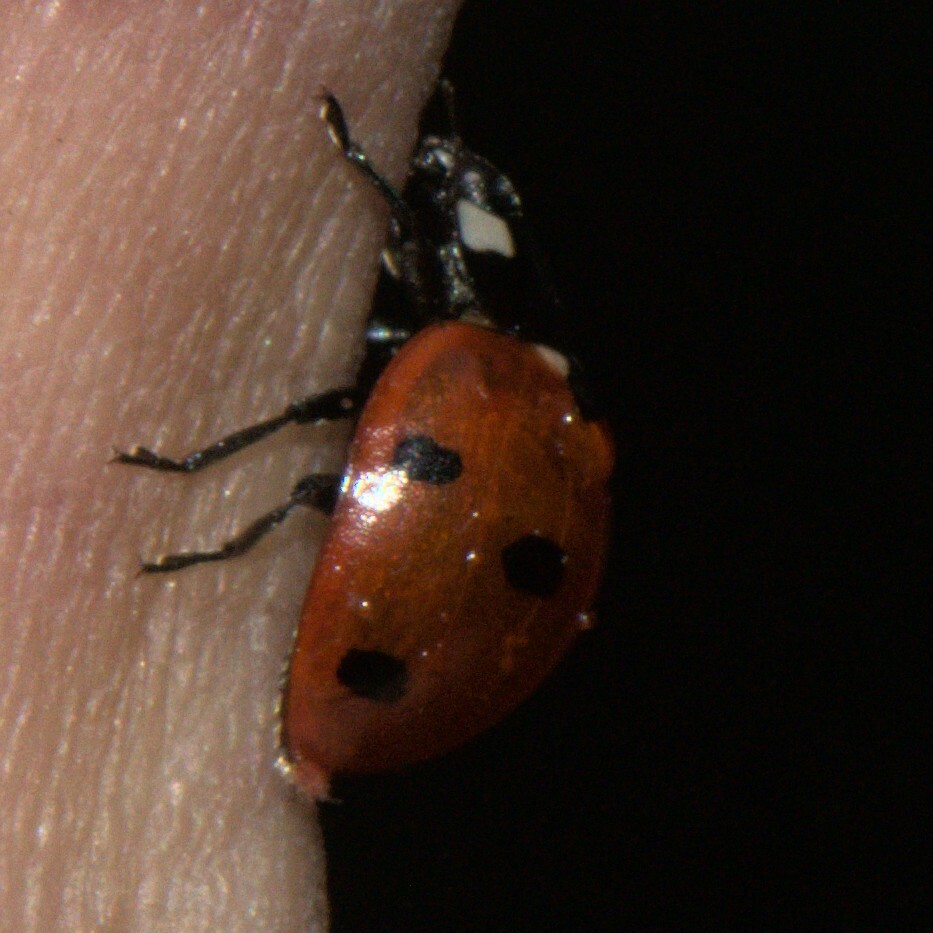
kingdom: Animalia
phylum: Arthropoda
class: Insecta
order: Coleoptera
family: Coccinellidae
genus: Coccinella
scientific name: Coccinella septempunctata
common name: Sevenspotted lady beetle
